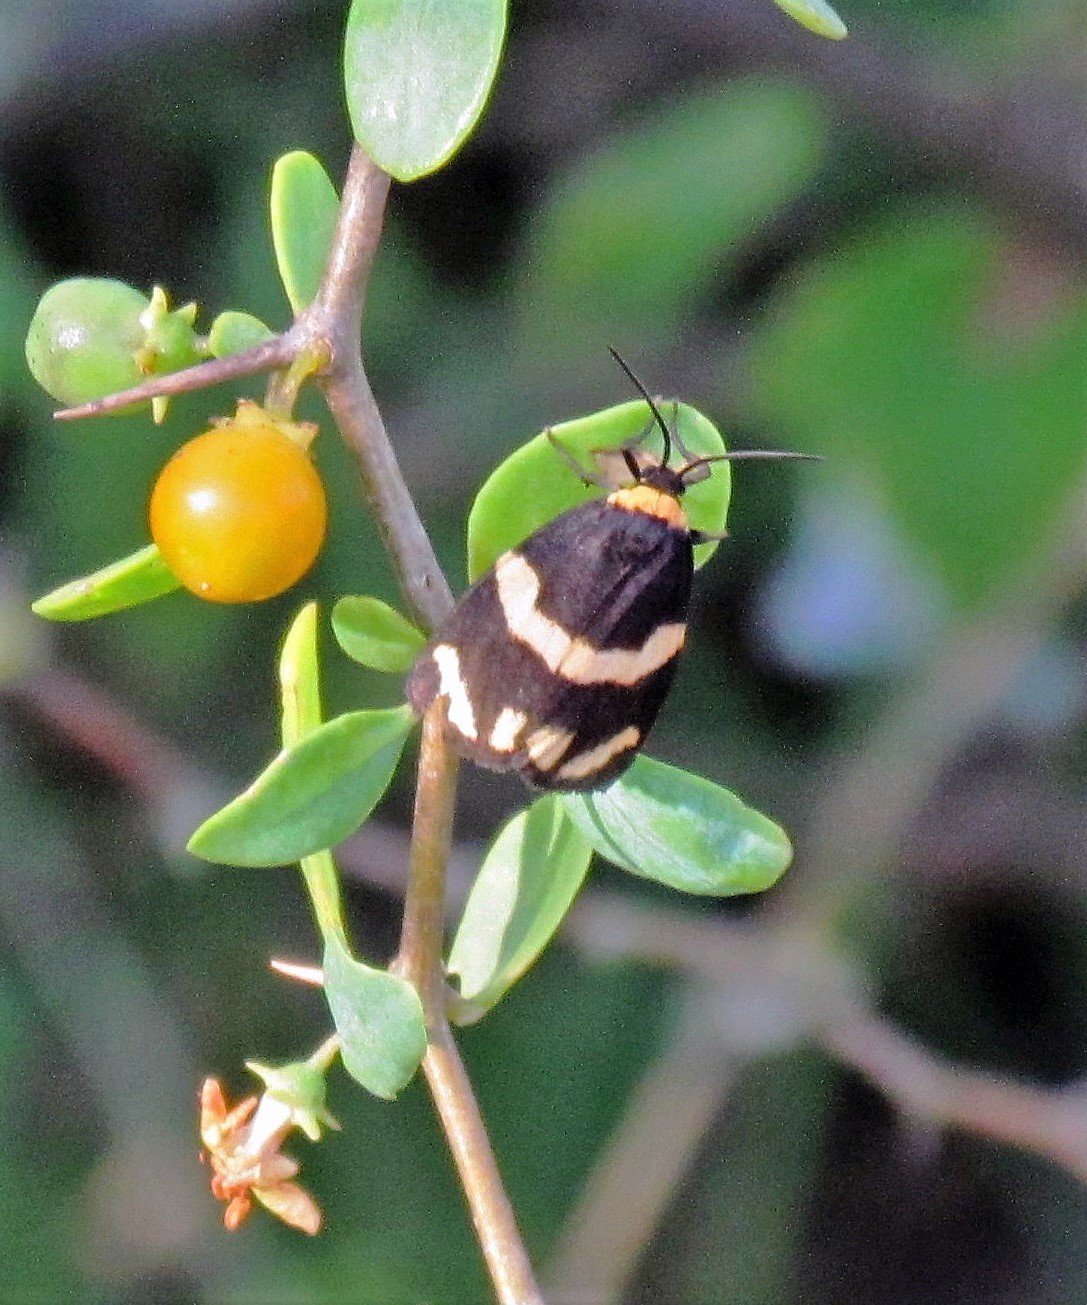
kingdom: Animalia
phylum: Arthropoda
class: Insecta
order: Lepidoptera
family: Erebidae
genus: Eudesmia
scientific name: Eudesmia
